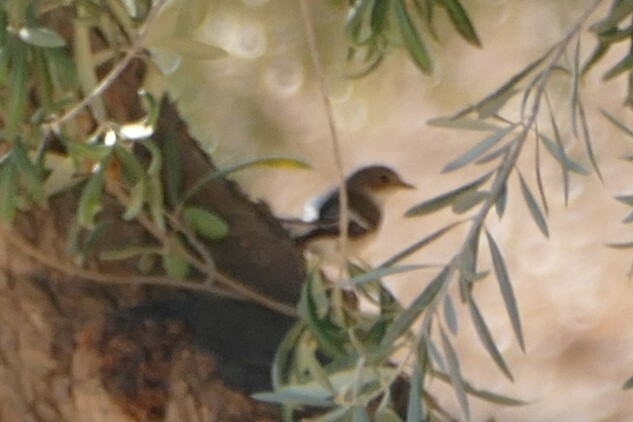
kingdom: Animalia
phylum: Chordata
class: Aves
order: Passeriformes
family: Muscicapidae
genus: Ficedula
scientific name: Ficedula hypoleuca
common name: European pied flycatcher
